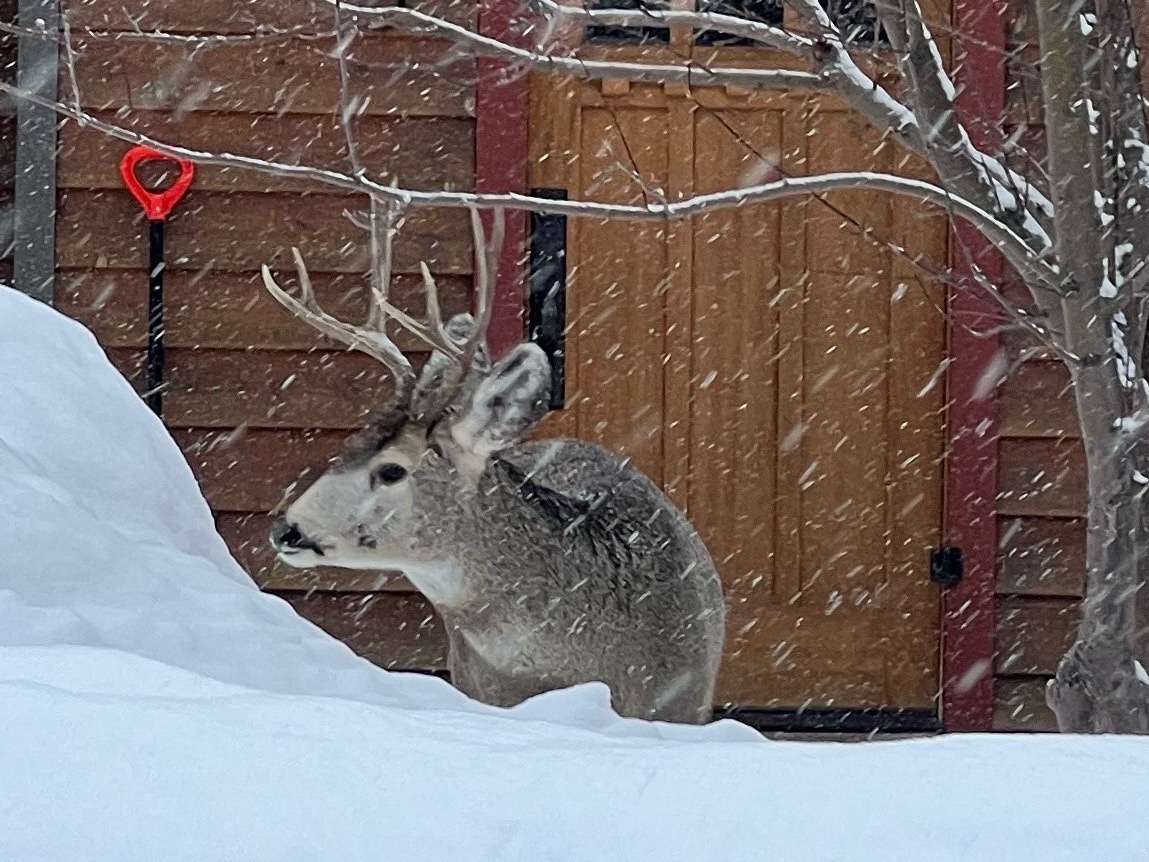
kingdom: Animalia
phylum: Chordata
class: Mammalia
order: Artiodactyla
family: Cervidae
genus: Odocoileus
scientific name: Odocoileus hemionus
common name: Mule deer
